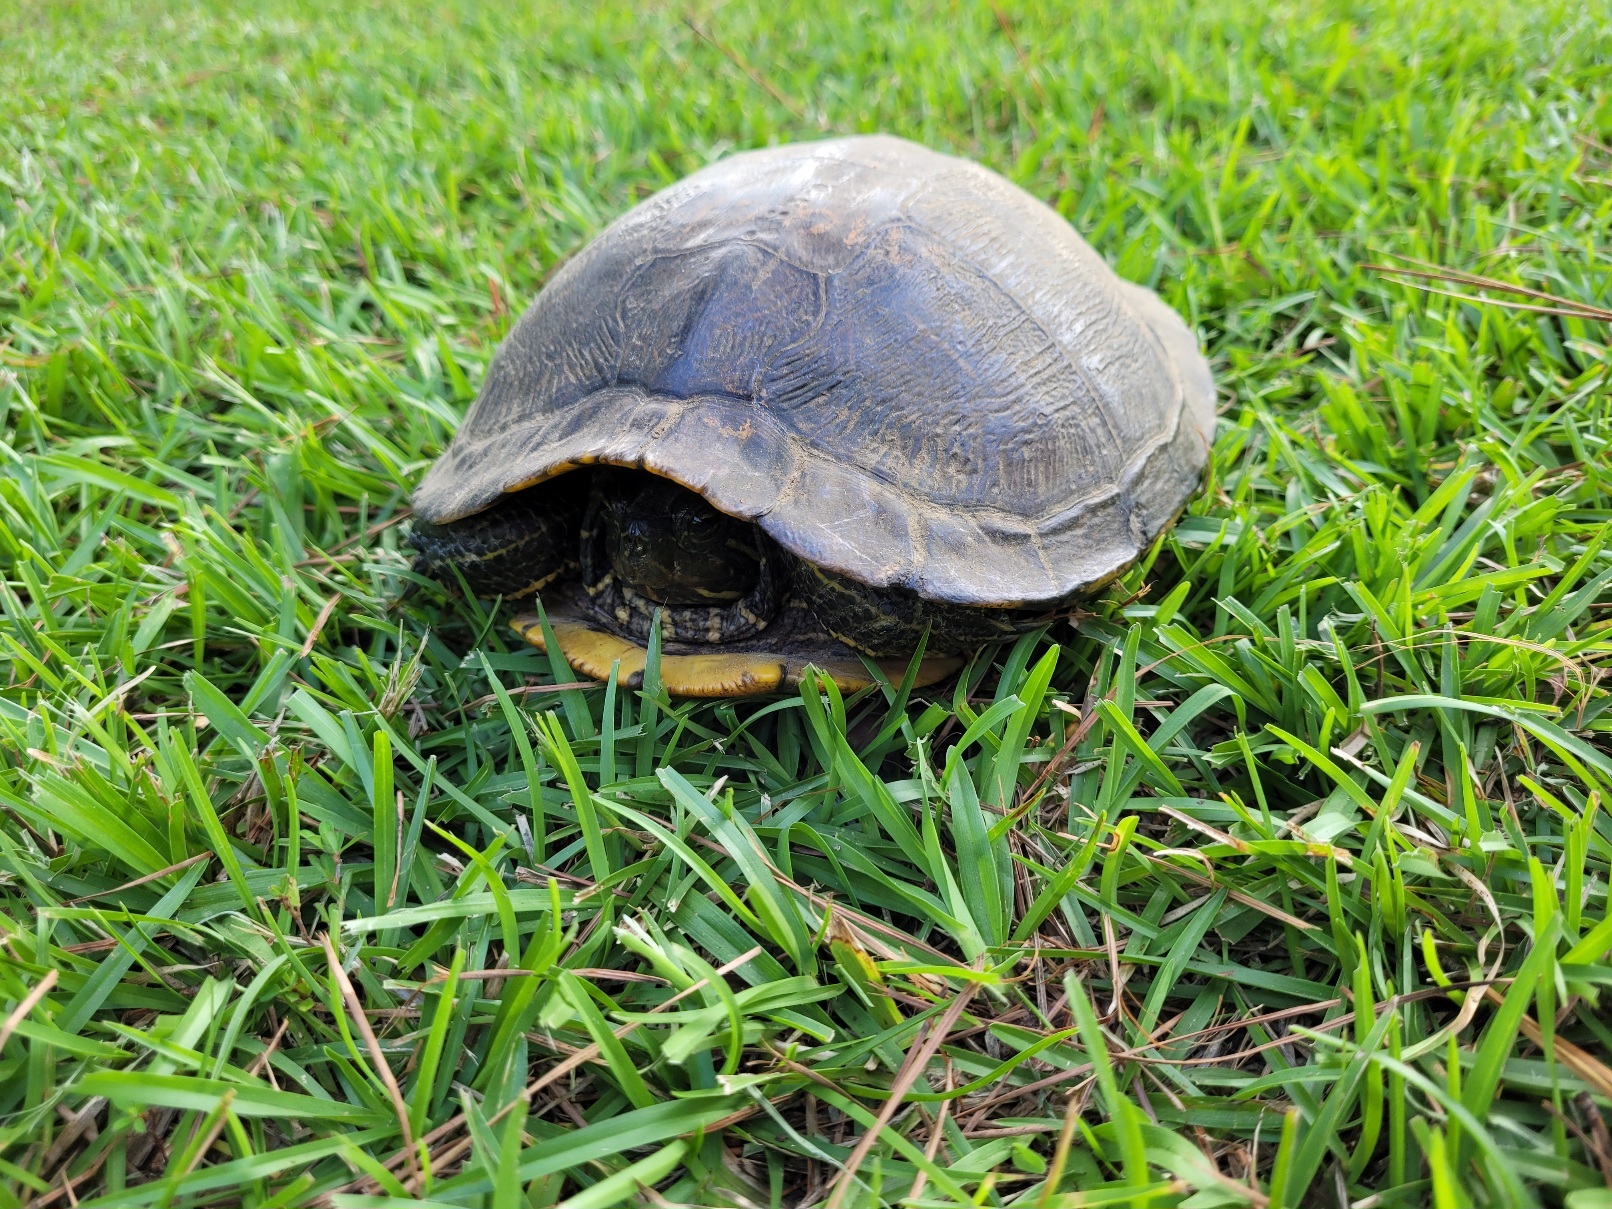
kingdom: Animalia
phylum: Chordata
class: Testudines
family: Emydidae
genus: Trachemys
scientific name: Trachemys scripta
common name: Slider
